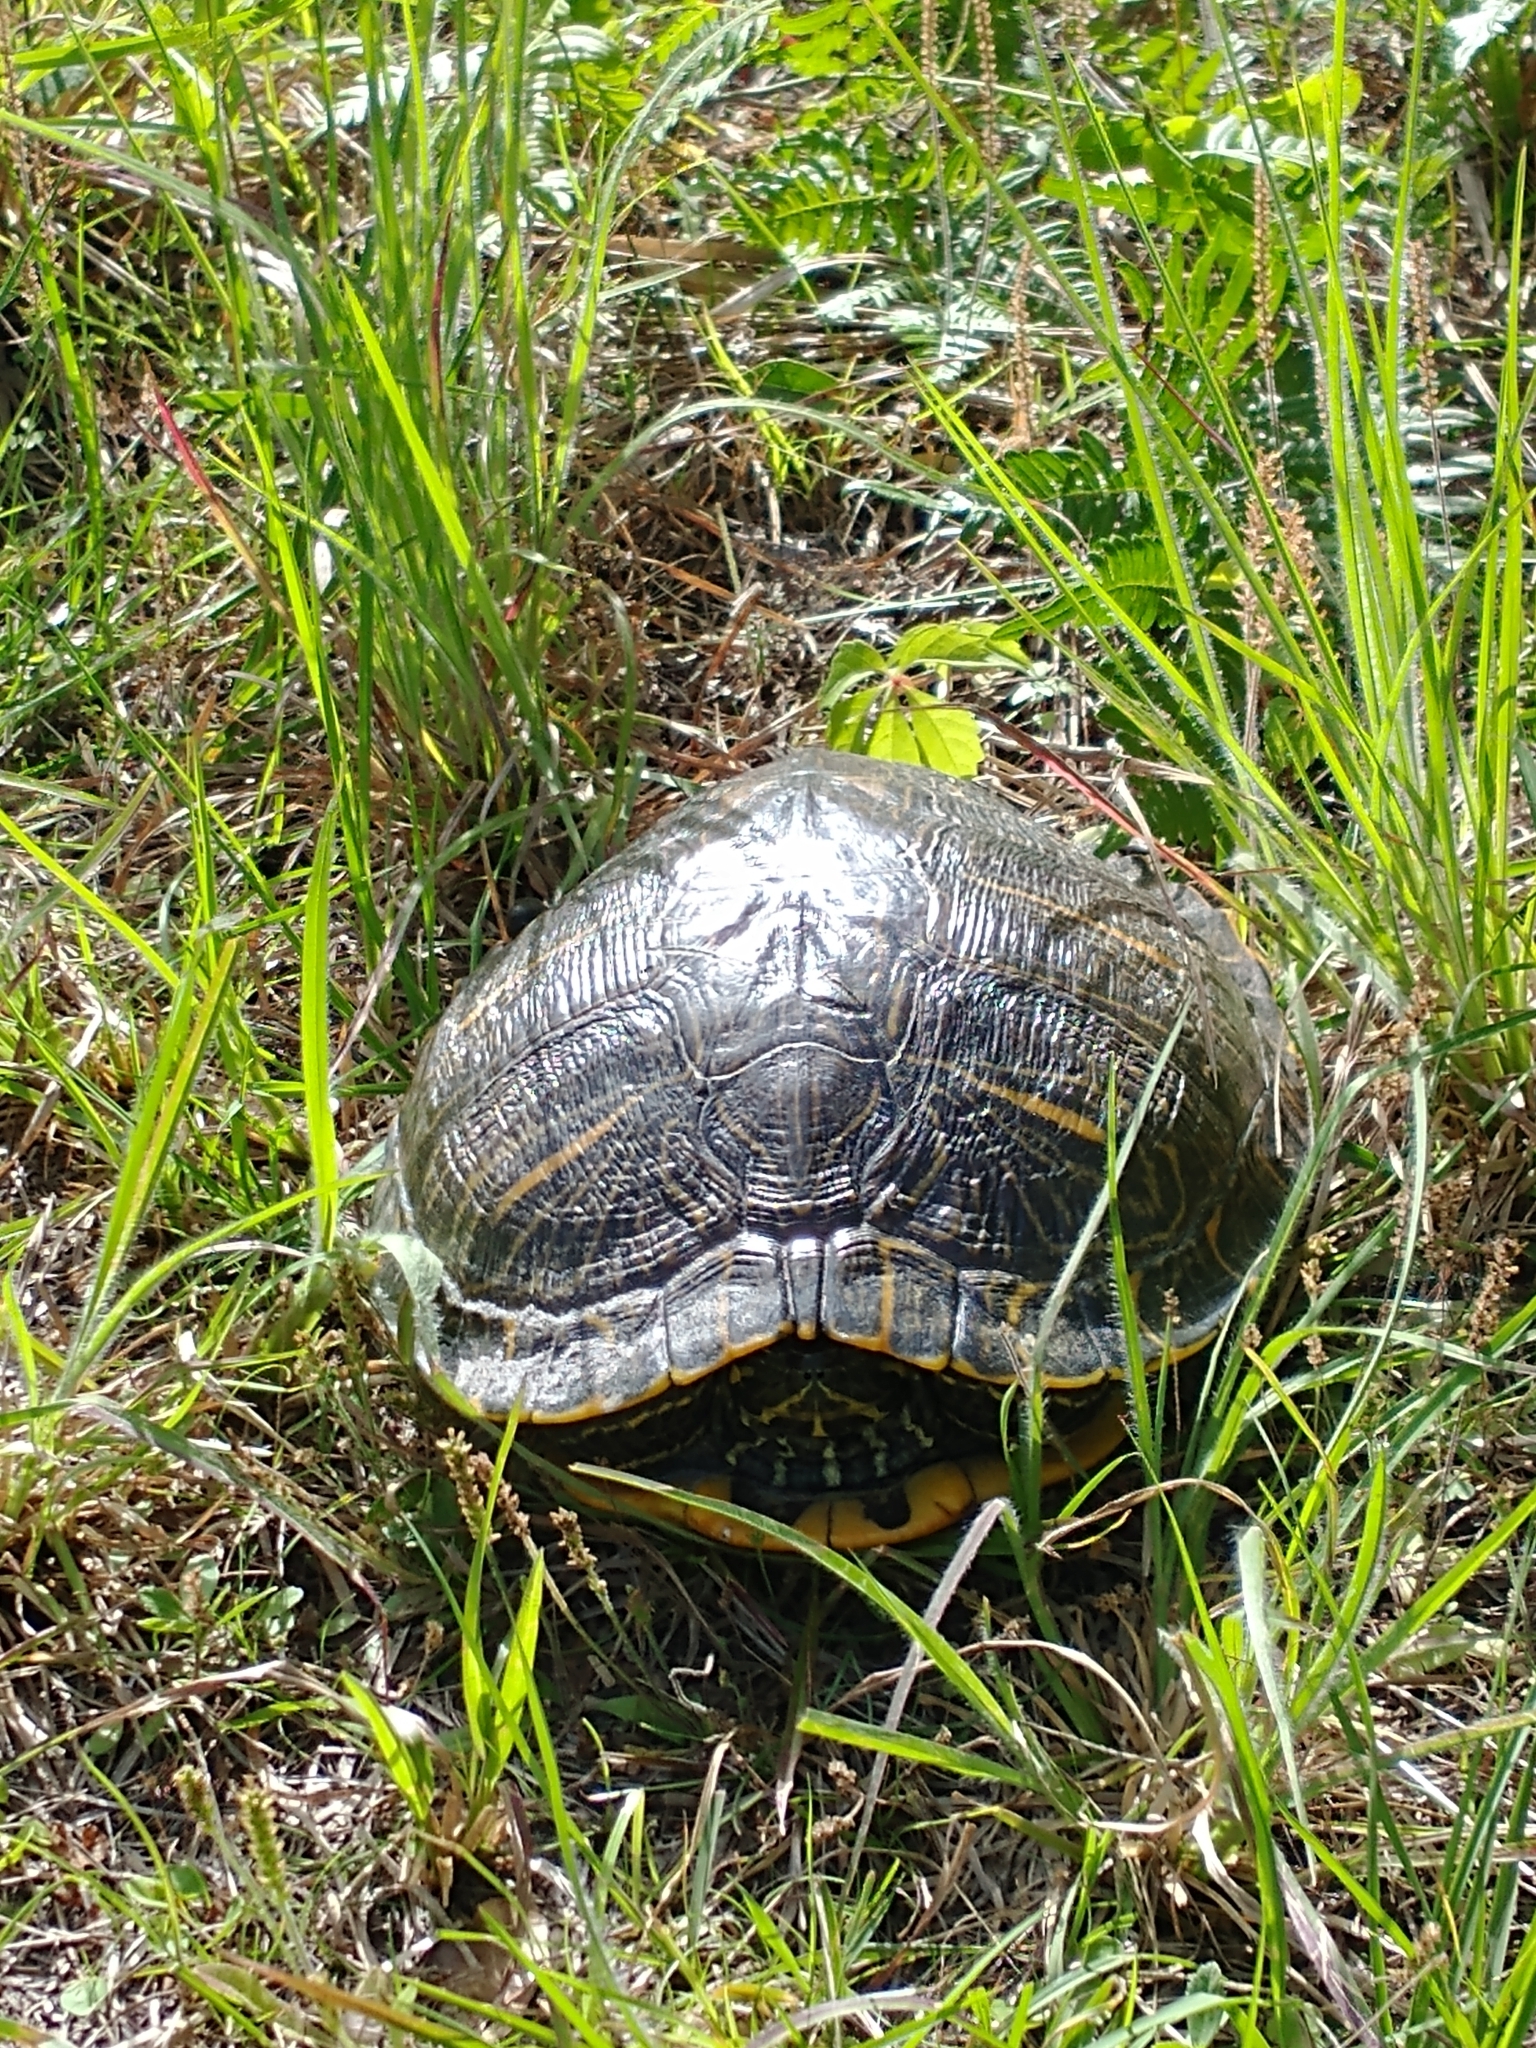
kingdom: Animalia
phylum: Chordata
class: Testudines
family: Emydidae
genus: Pseudemys
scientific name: Pseudemys peninsularis
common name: Peninsula cooter
